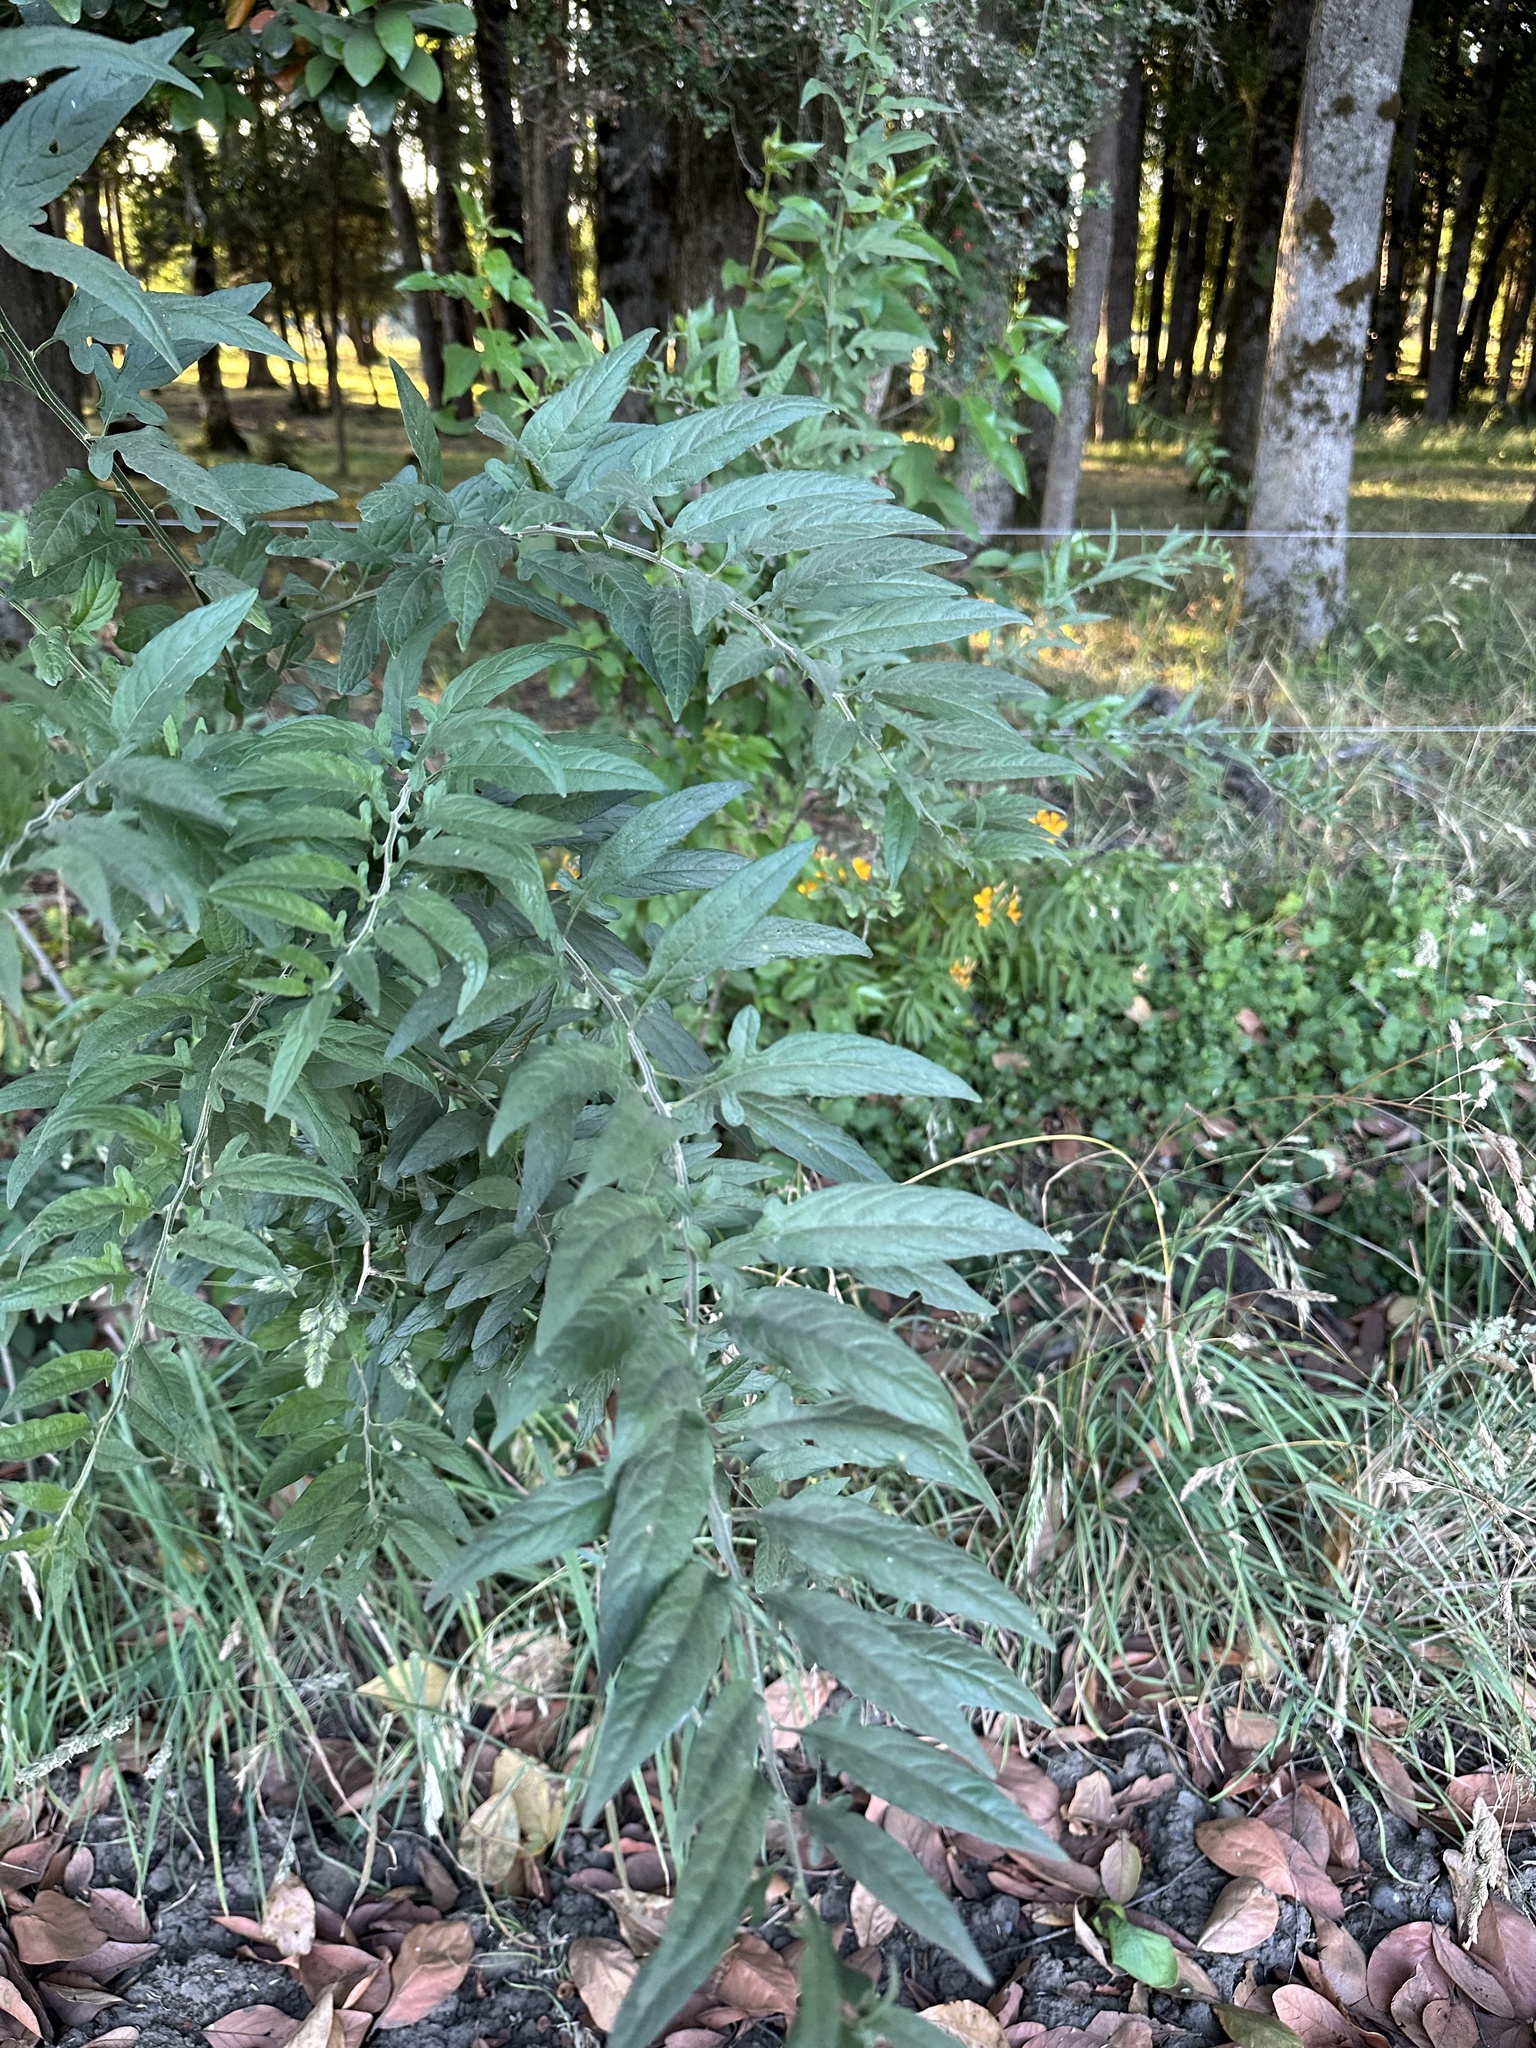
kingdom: Plantae
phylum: Tracheophyta
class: Magnoliopsida
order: Solanales
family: Solanaceae
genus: Solanum
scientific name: Solanum valdiviense
